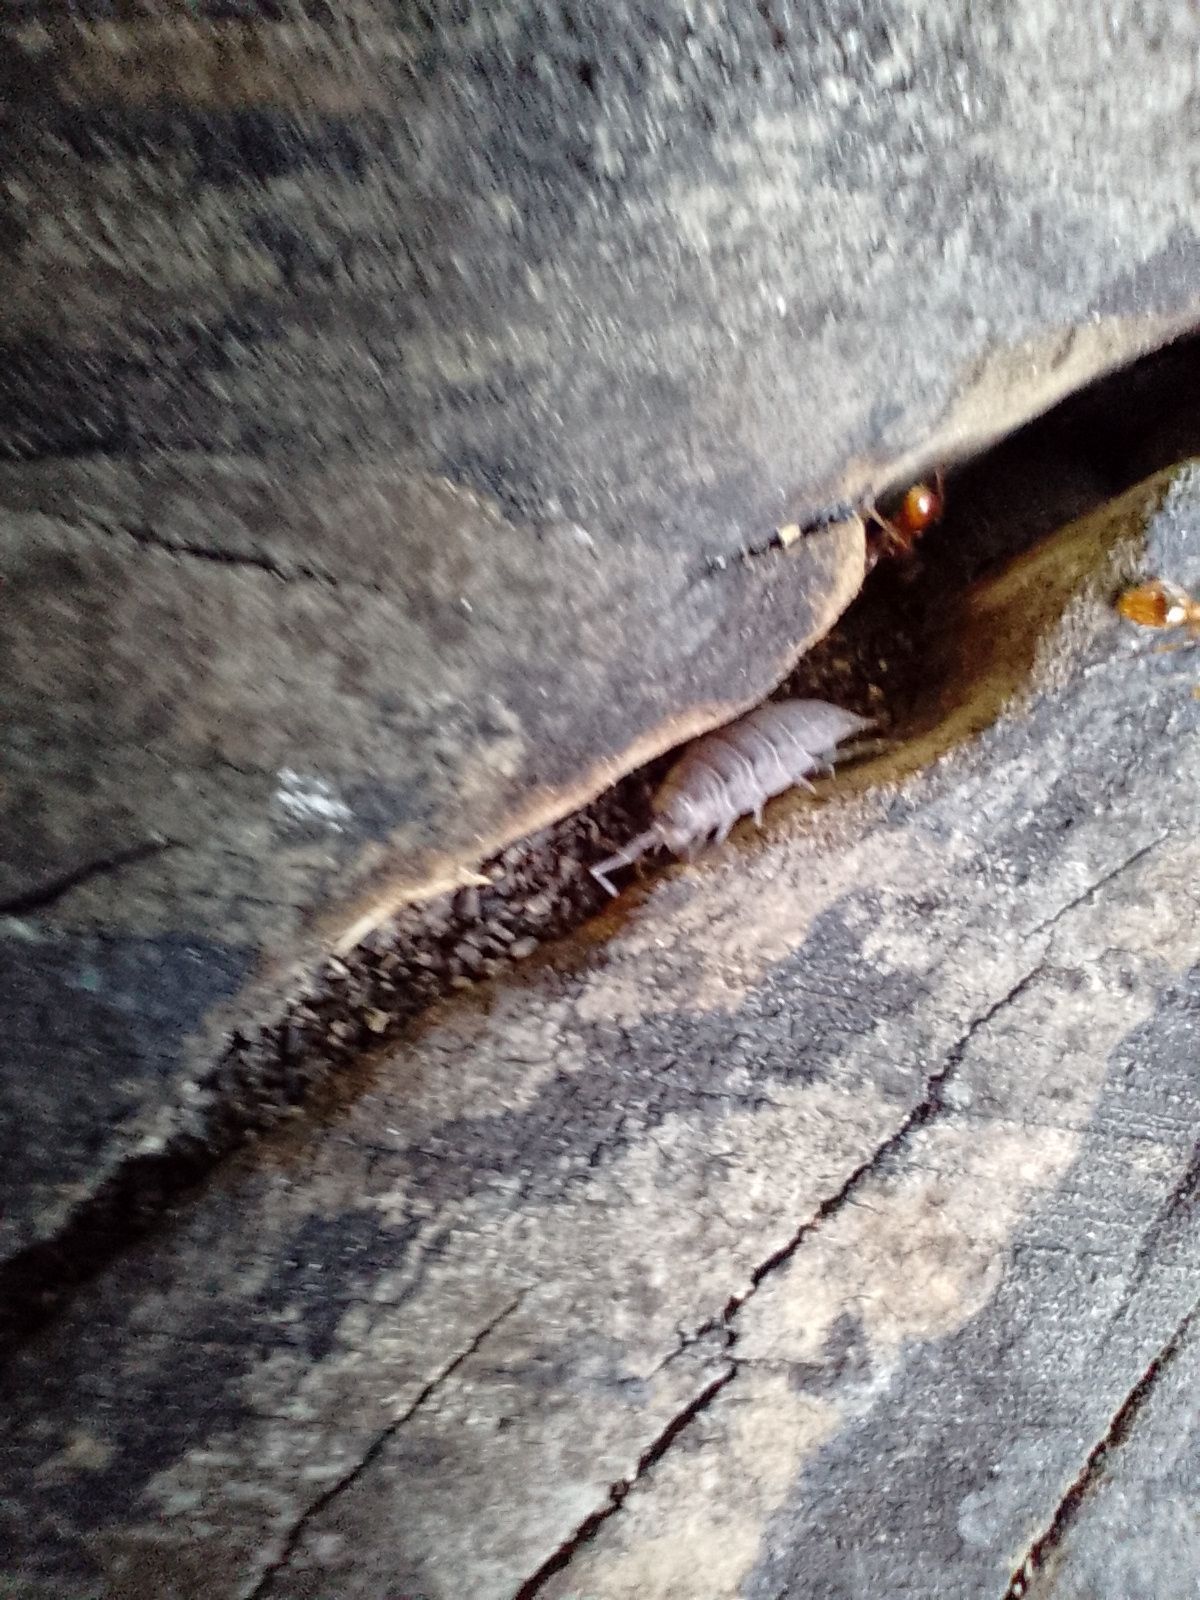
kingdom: Animalia
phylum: Arthropoda
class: Malacostraca
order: Isopoda
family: Porcellionidae
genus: Porcellio
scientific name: Porcellio scaber
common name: Common rough woodlouse
